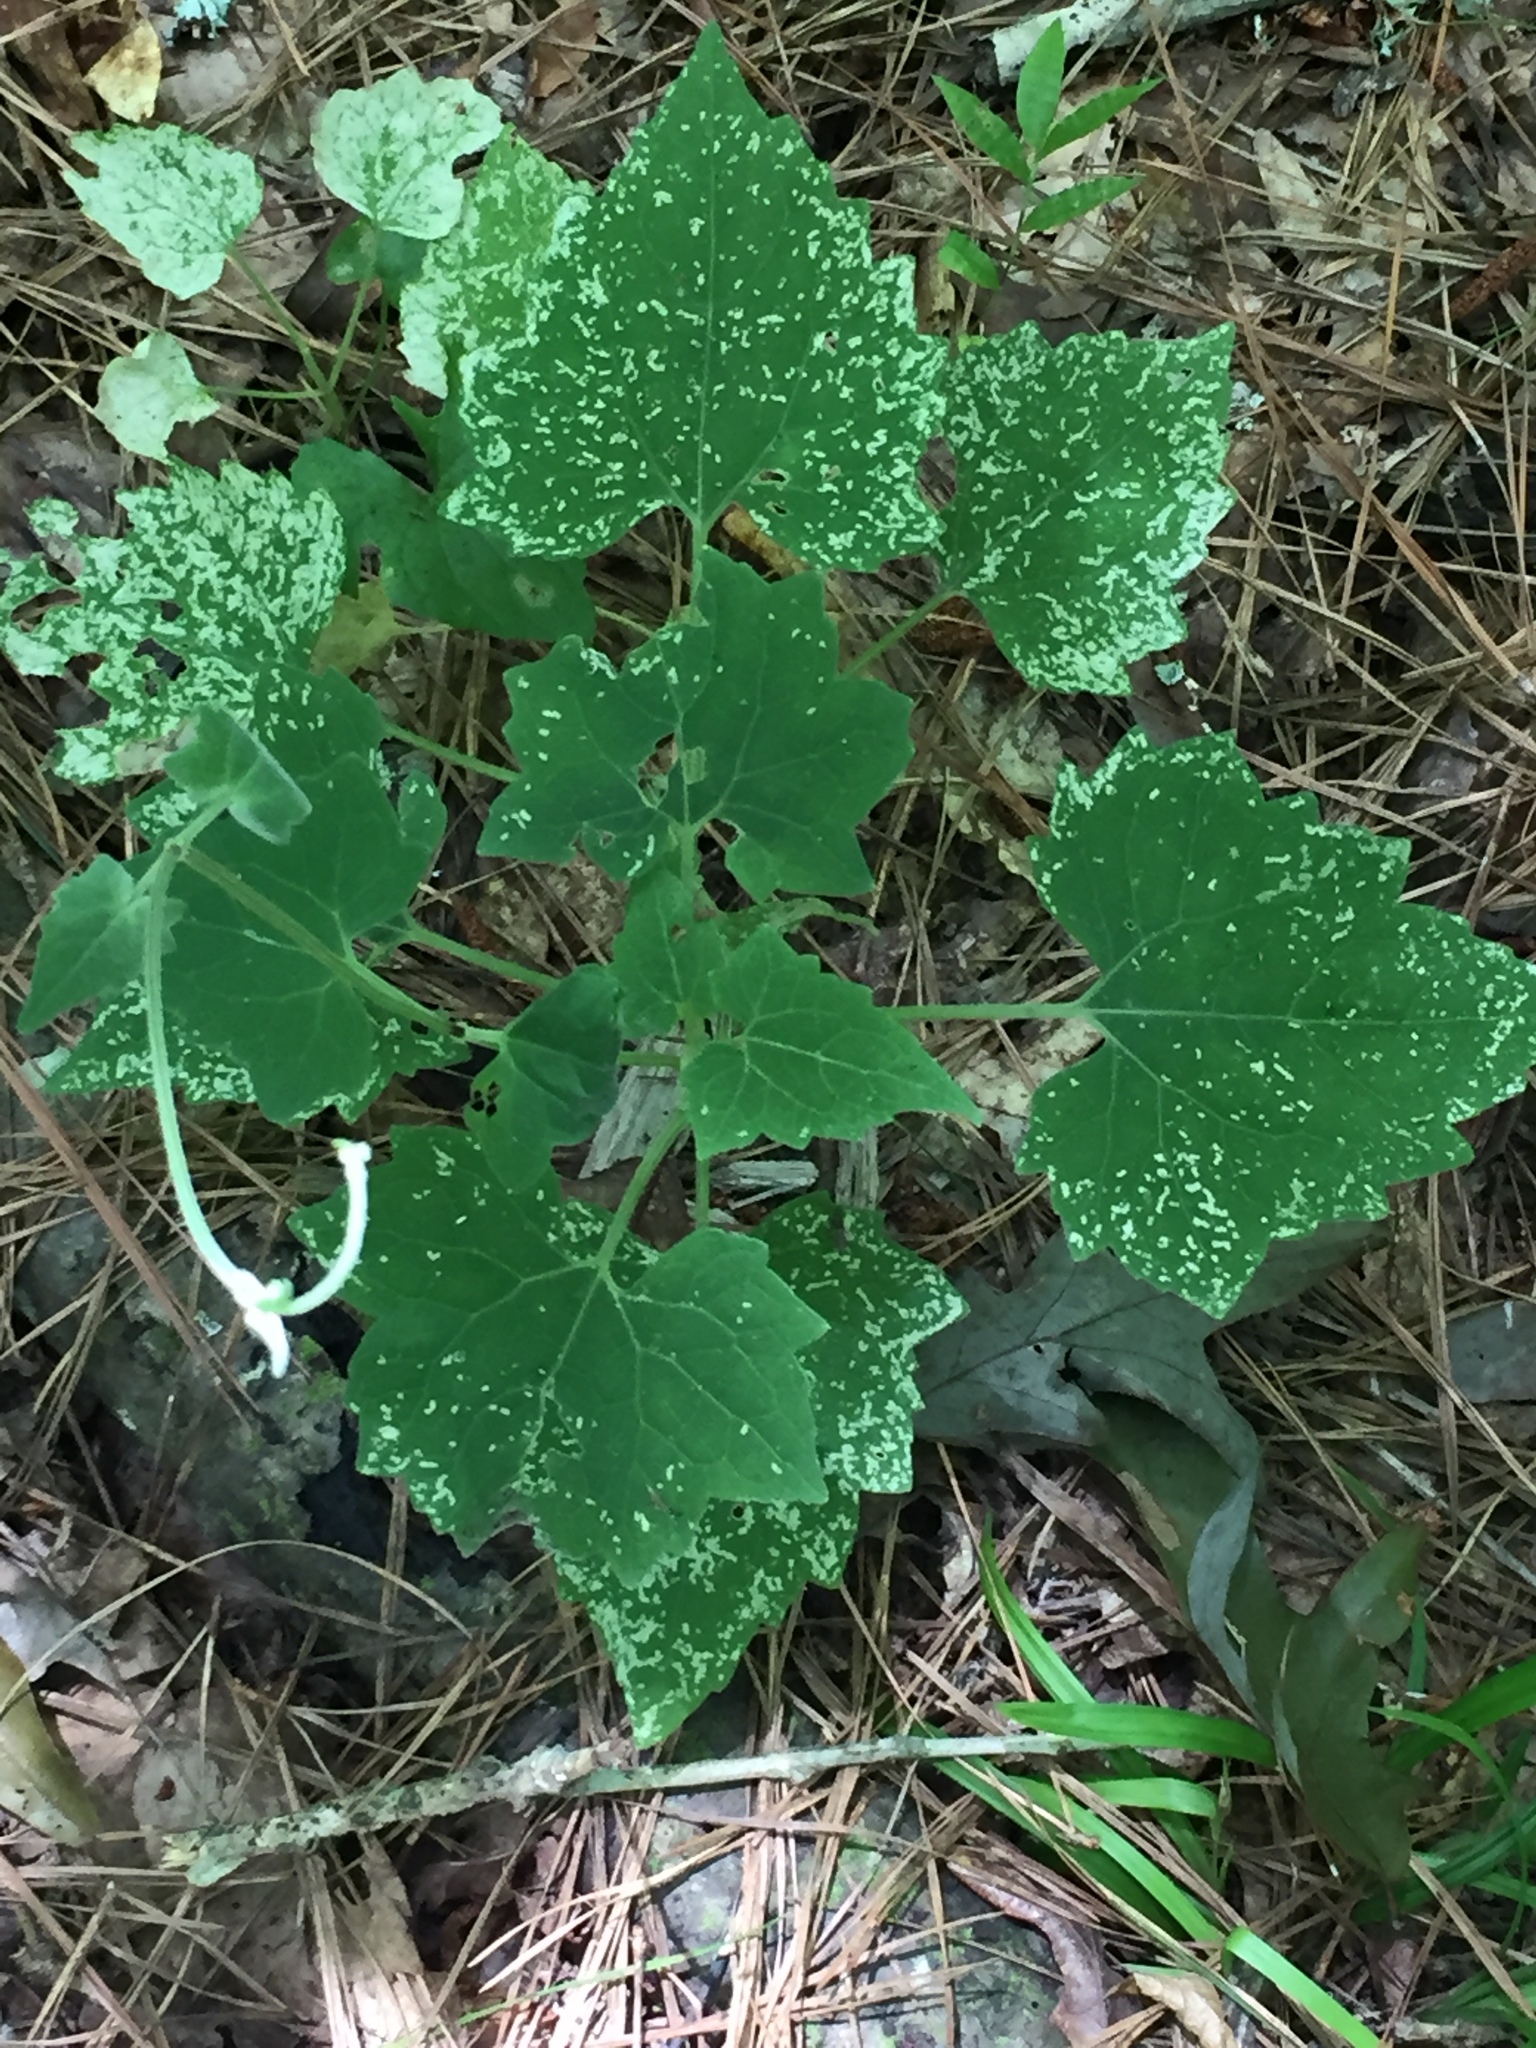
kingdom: Plantae
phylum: Tracheophyta
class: Magnoliopsida
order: Asterales
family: Asteraceae
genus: Mikania
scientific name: Mikania cordifolia
